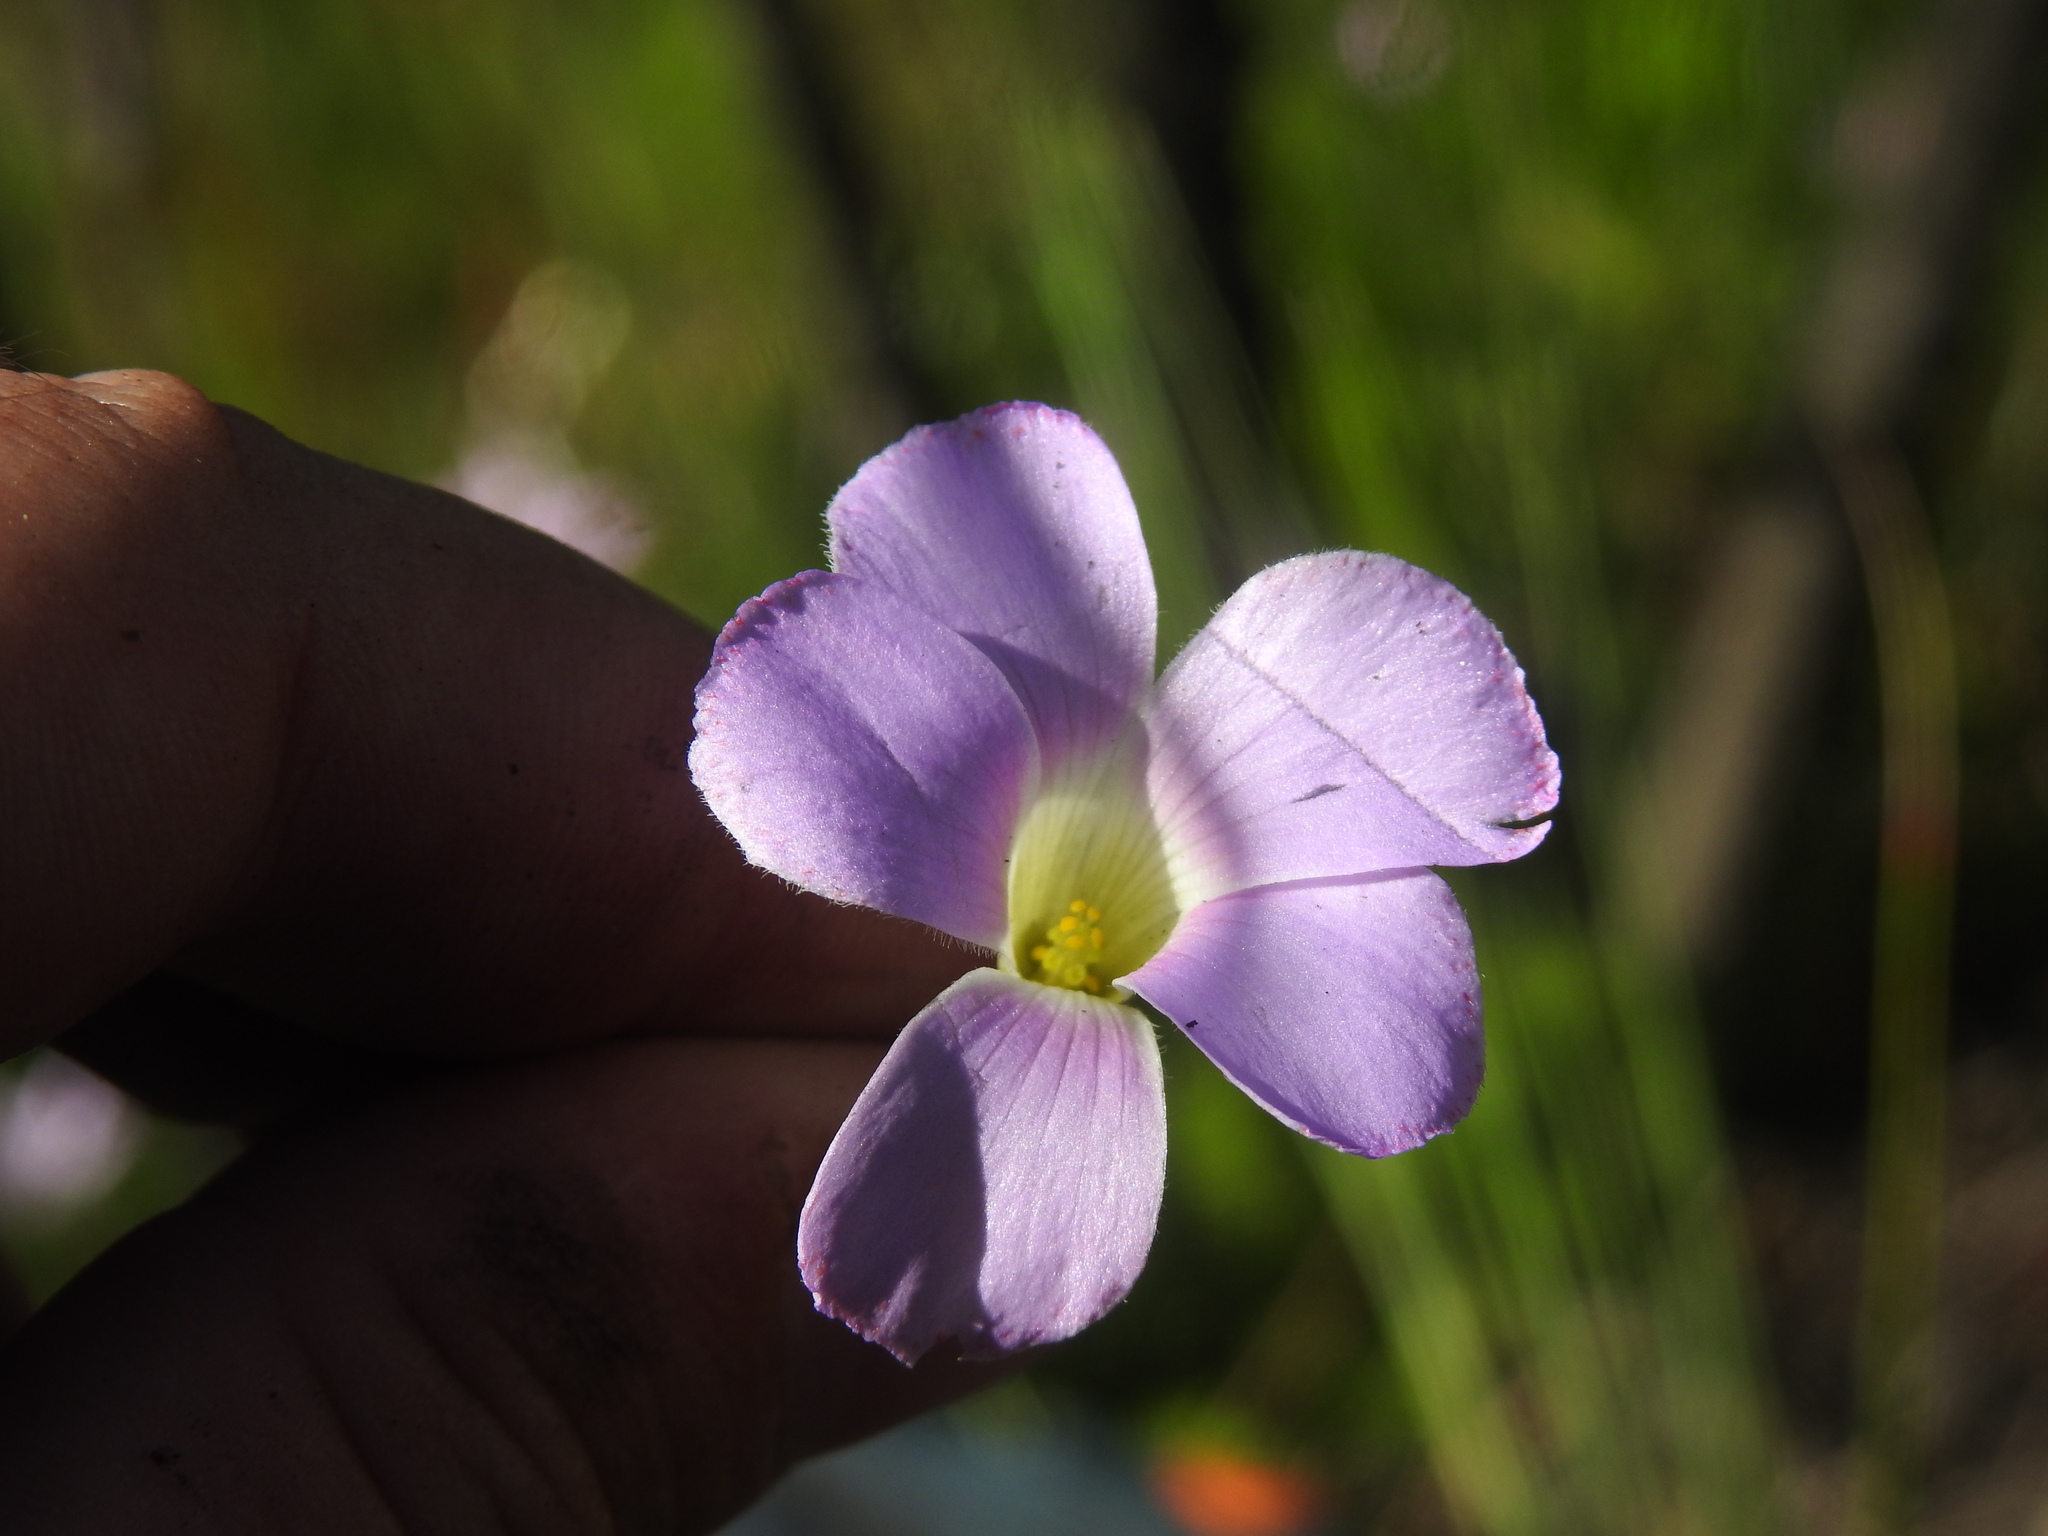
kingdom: Plantae
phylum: Tracheophyta
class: Magnoliopsida
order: Oxalidales
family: Oxalidaceae
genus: Oxalis
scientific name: Oxalis truncatula
